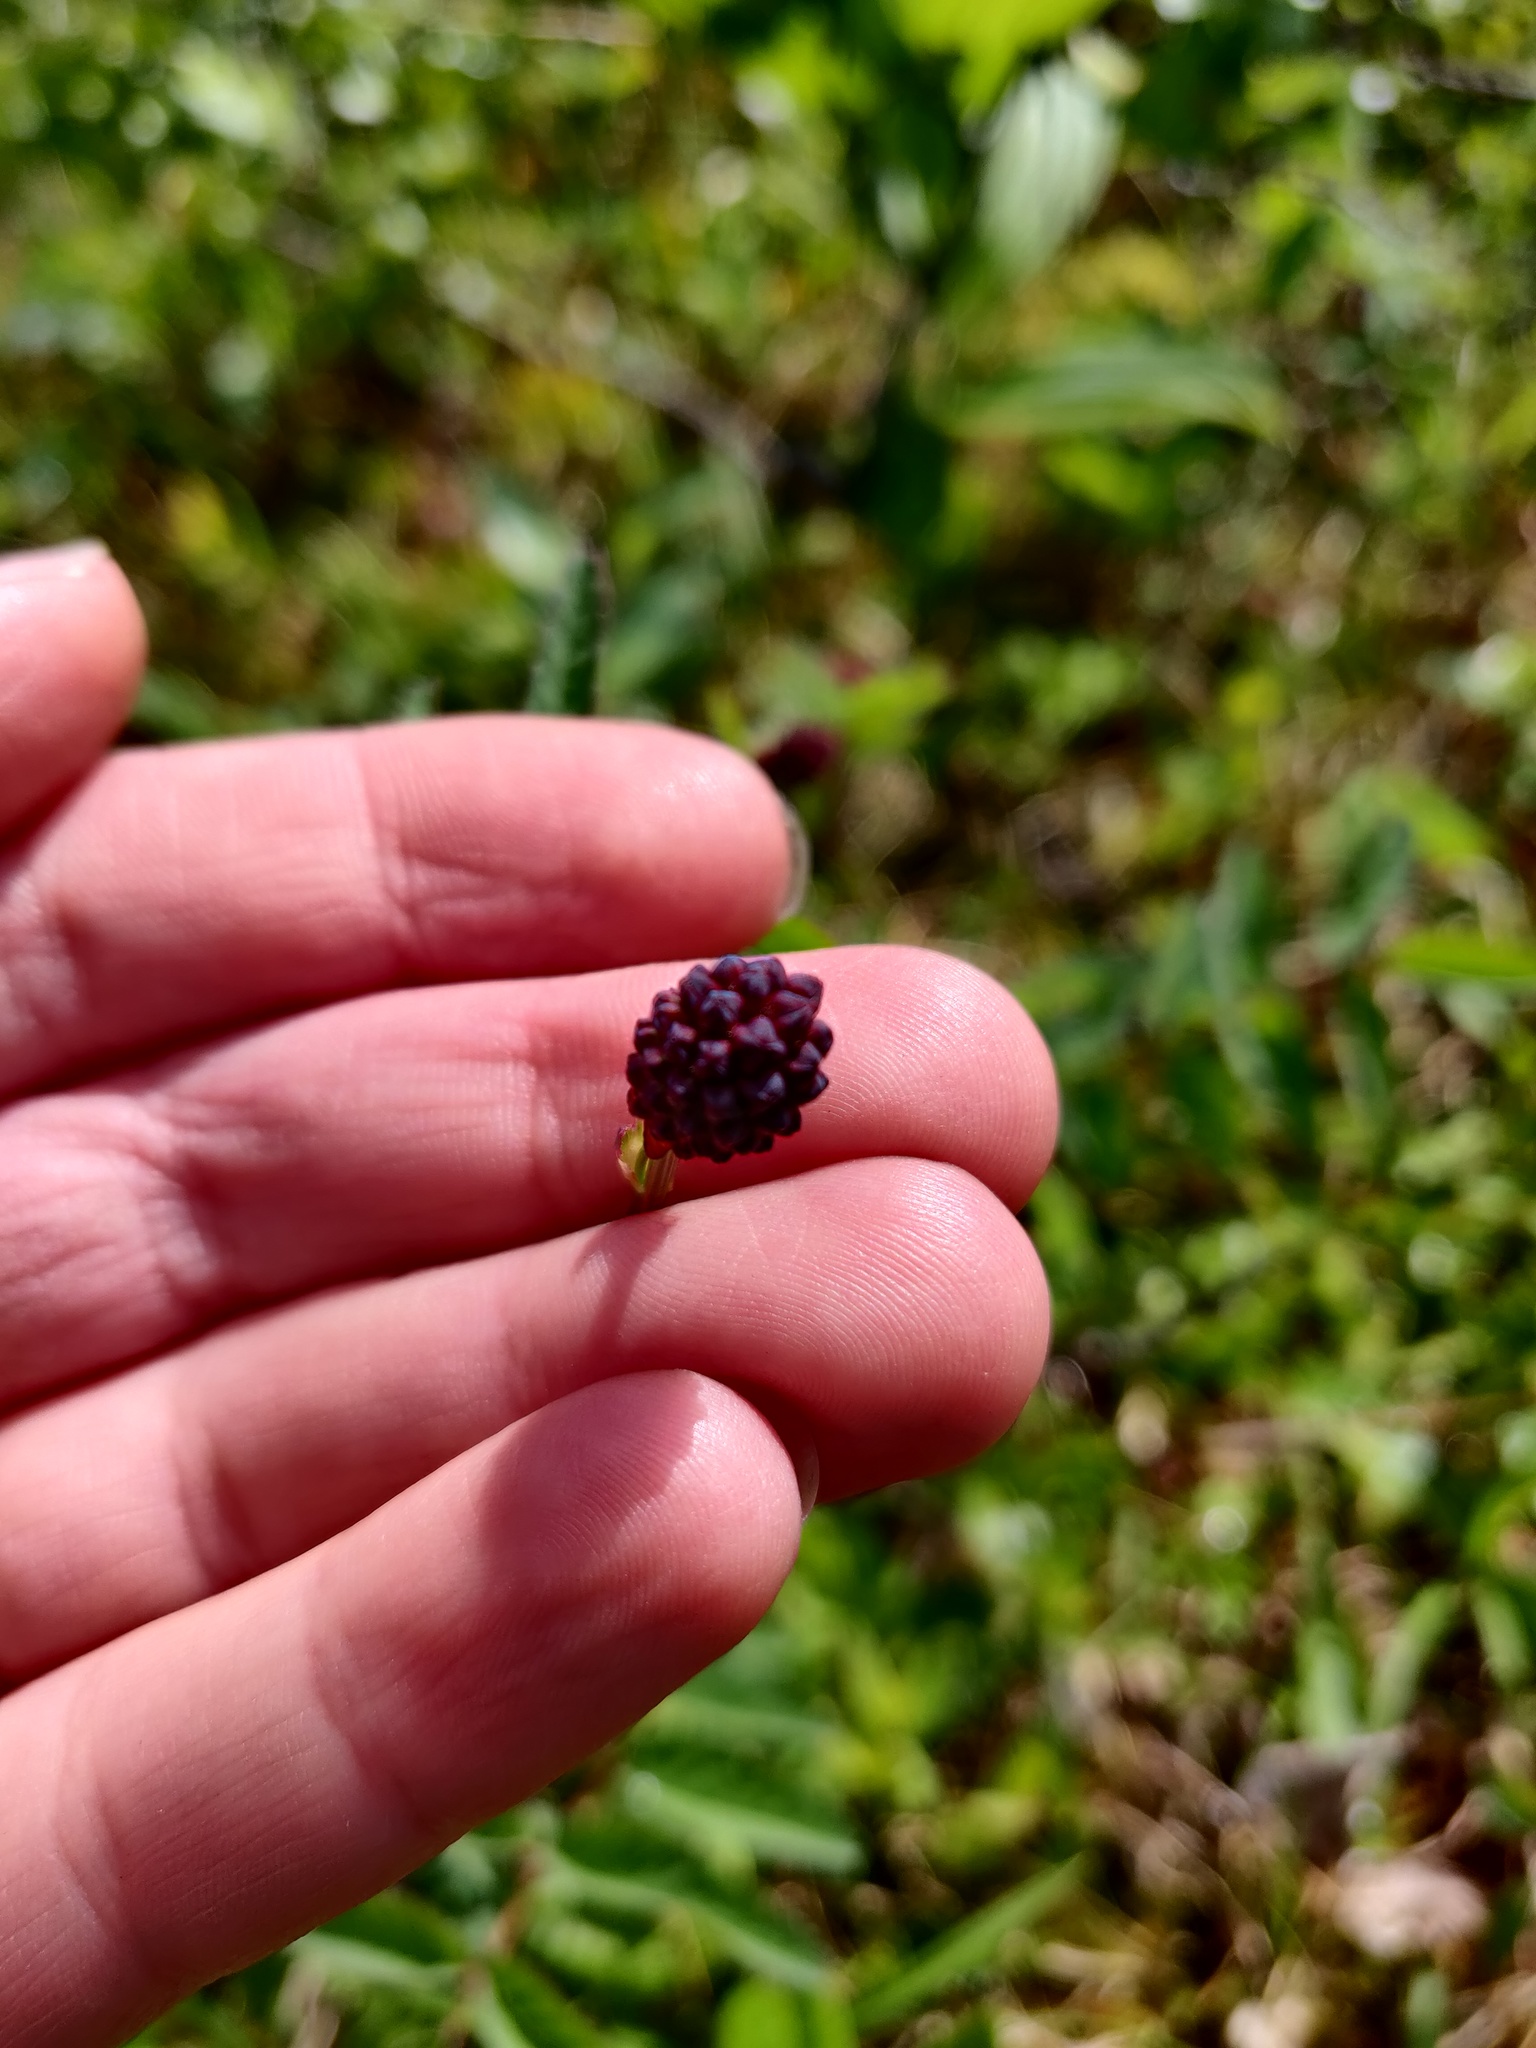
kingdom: Plantae
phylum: Tracheophyta
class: Magnoliopsida
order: Rosales
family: Rosaceae
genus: Sanguisorba
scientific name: Sanguisorba officinalis
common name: Great burnet
